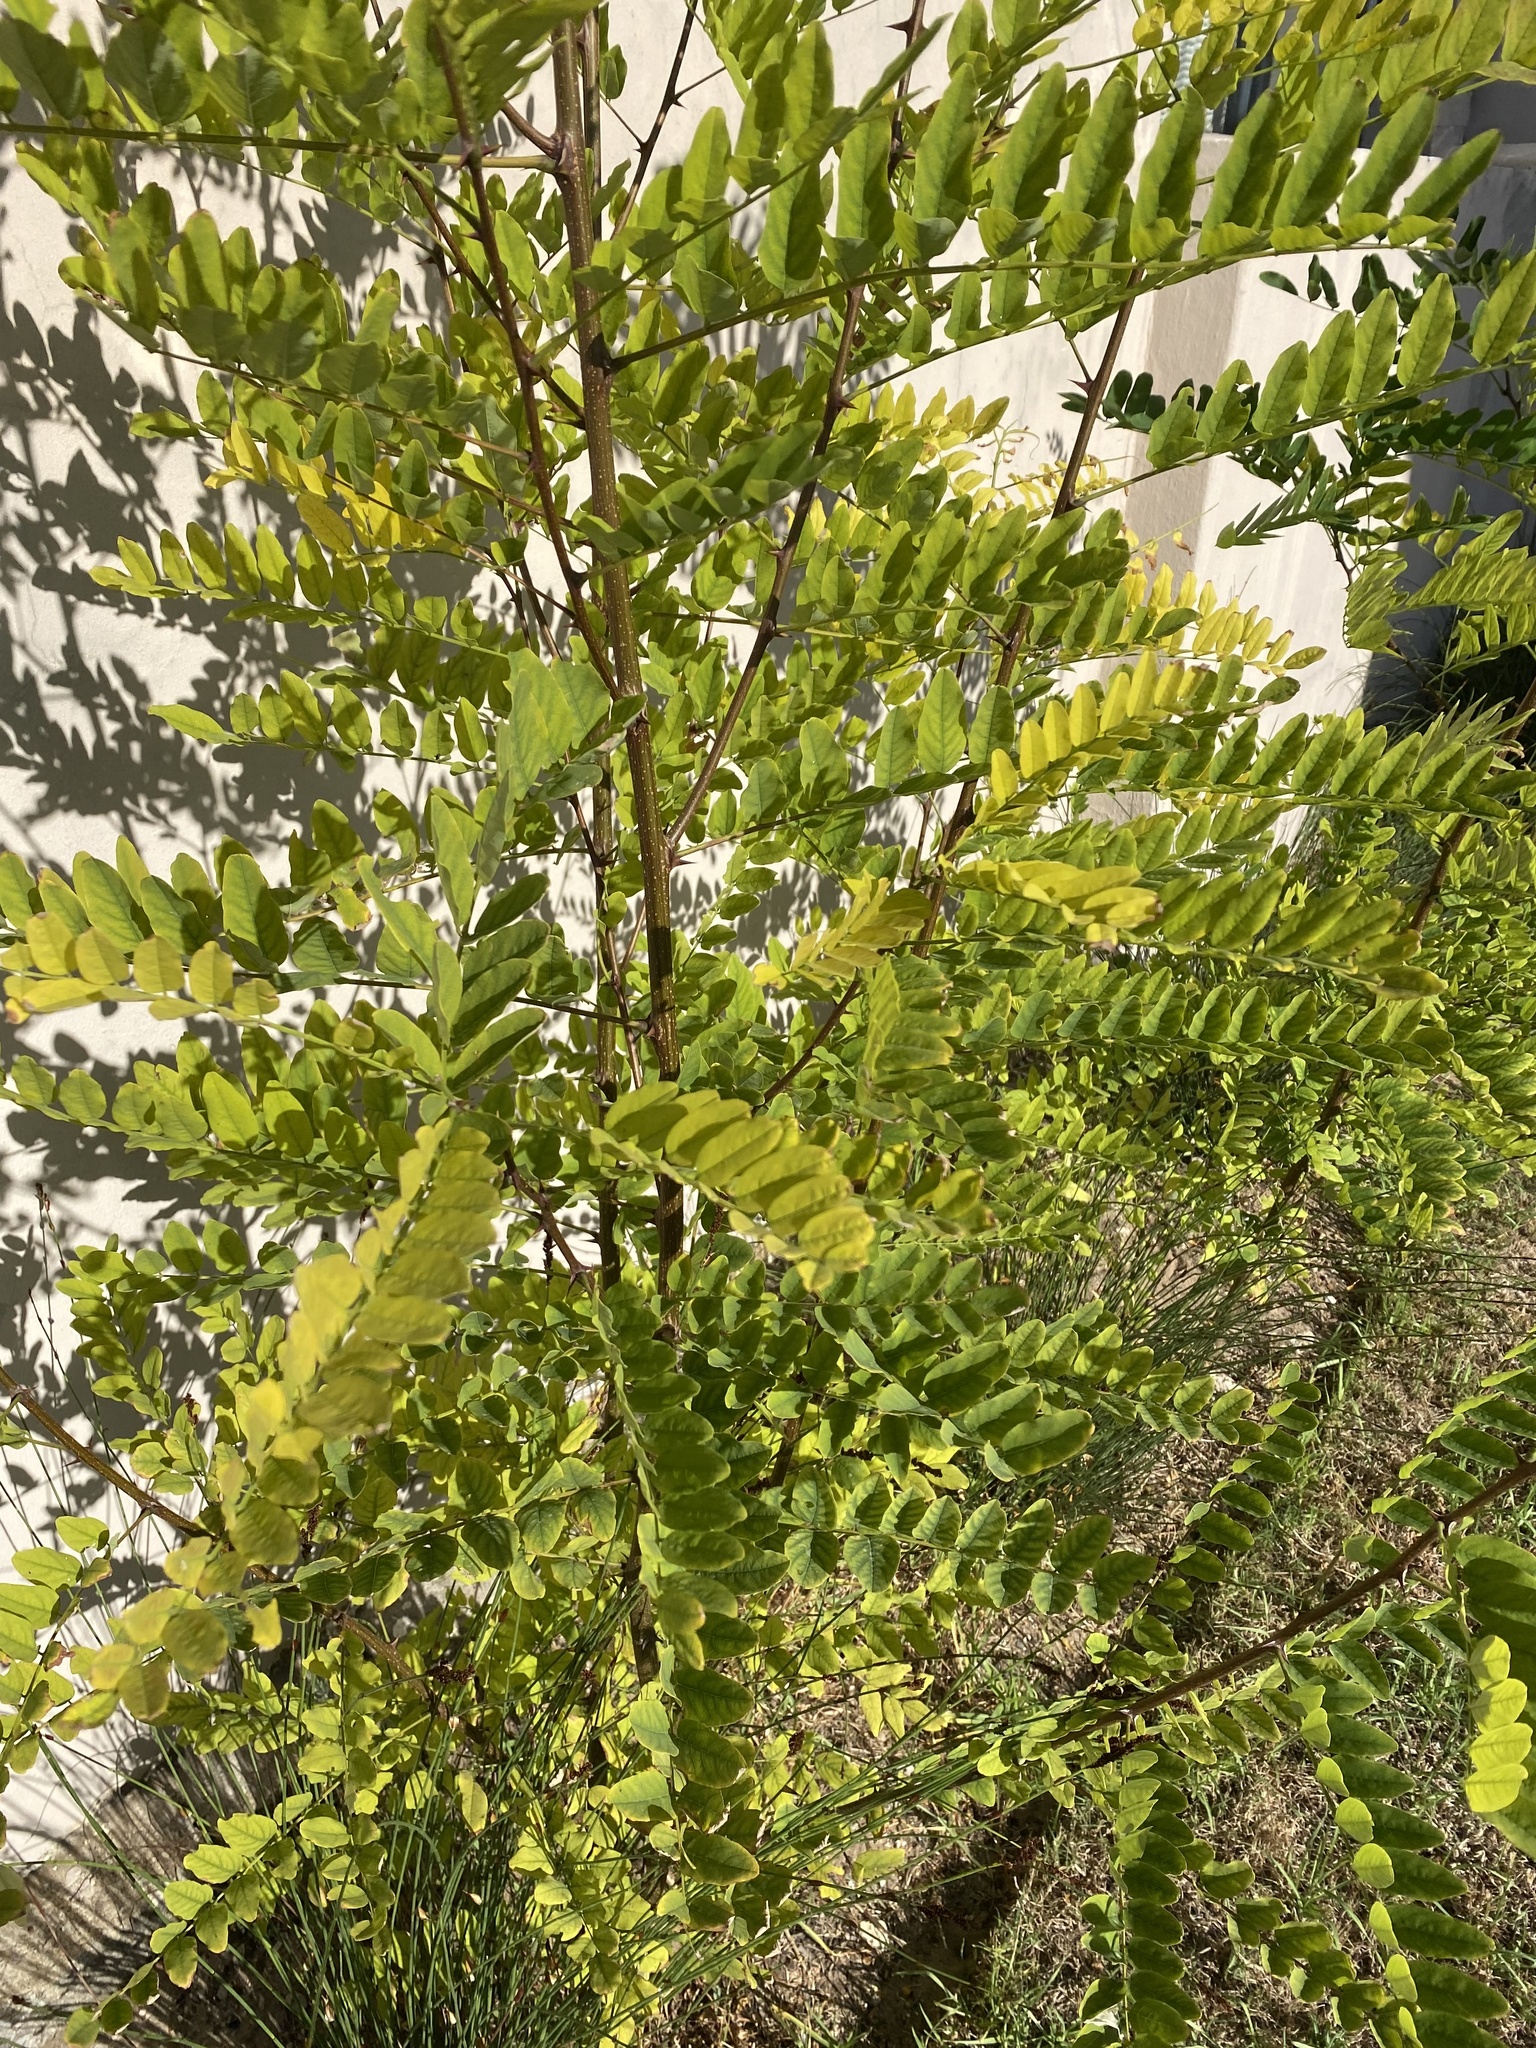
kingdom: Plantae
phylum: Tracheophyta
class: Magnoliopsida
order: Fabales
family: Fabaceae
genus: Robinia
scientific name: Robinia pseudoacacia
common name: Black locust
